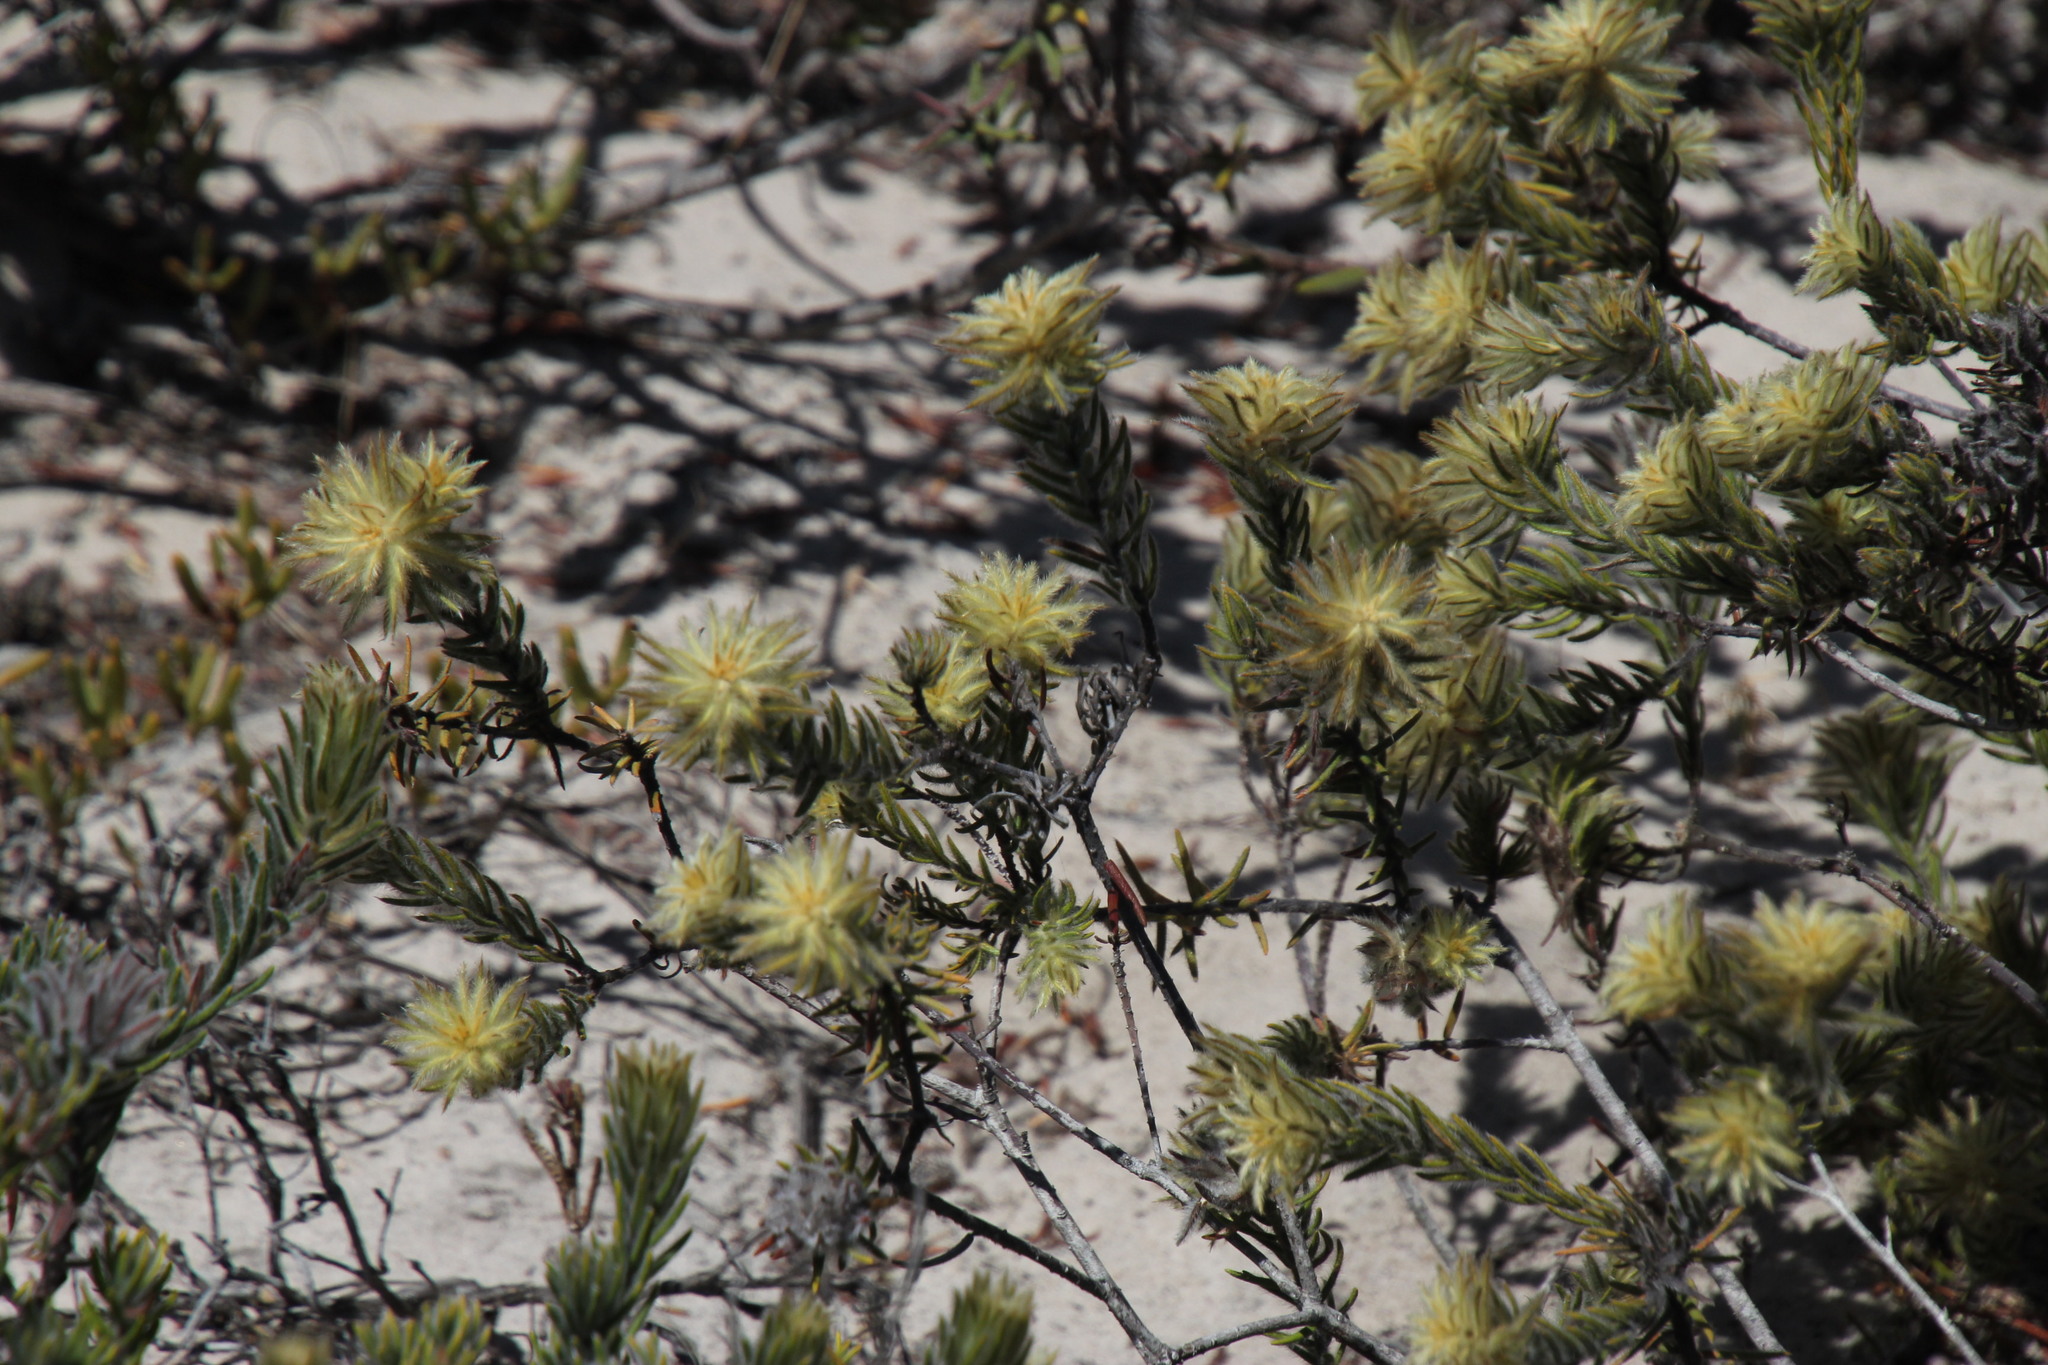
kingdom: Plantae
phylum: Tracheophyta
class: Magnoliopsida
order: Rosales
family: Rhamnaceae
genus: Phylica
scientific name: Phylica plumosa
